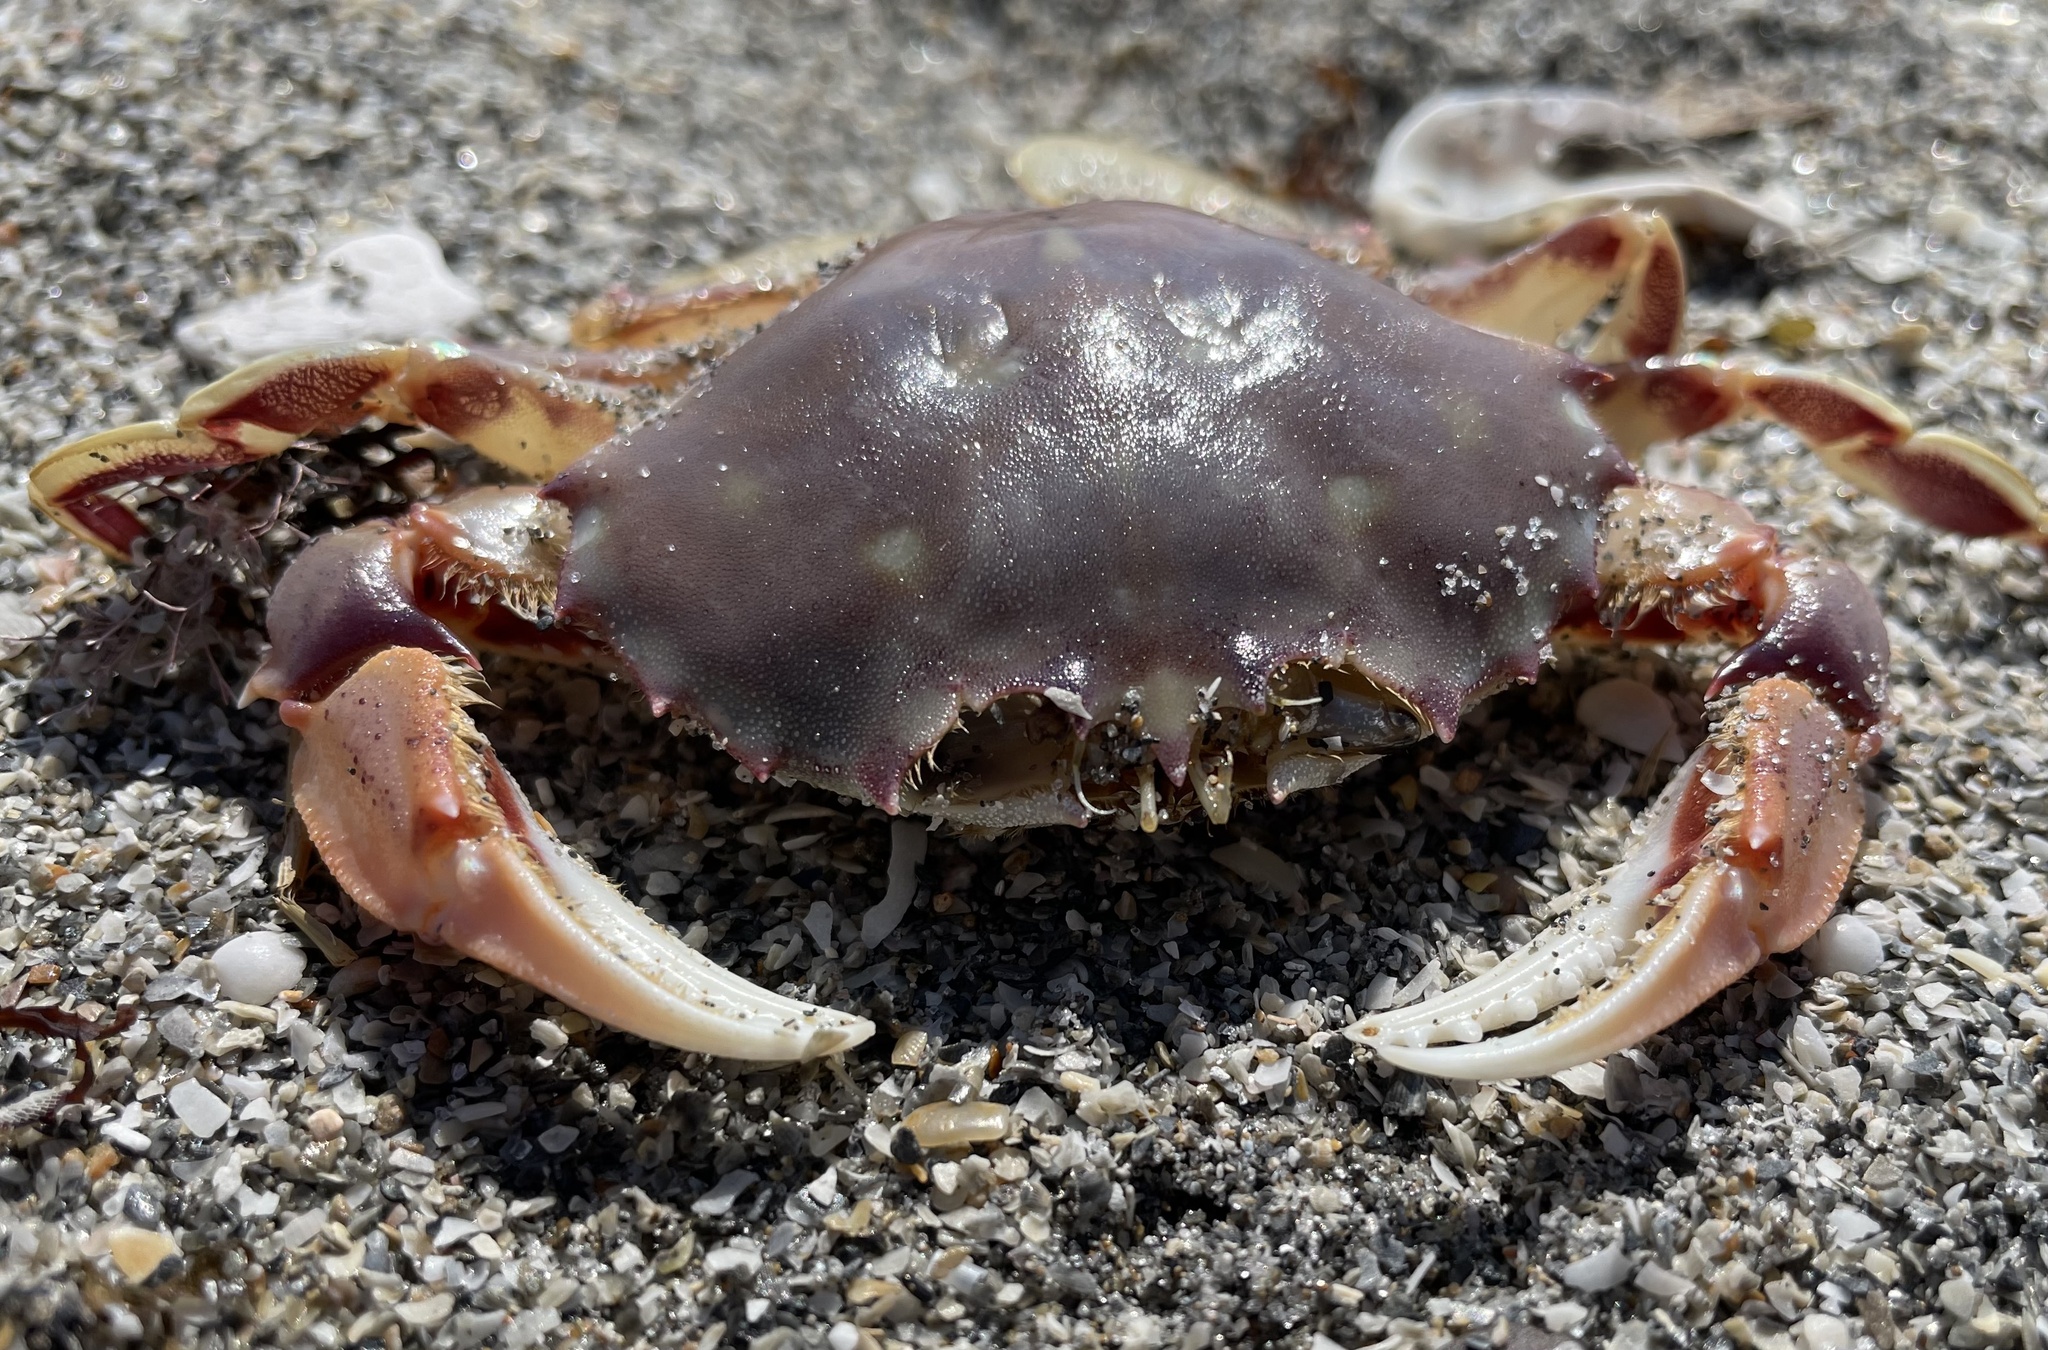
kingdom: Animalia
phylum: Arthropoda
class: Malacostraca
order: Decapoda
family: Ovalipidae
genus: Ovalipes
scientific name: Ovalipes stephensoni
